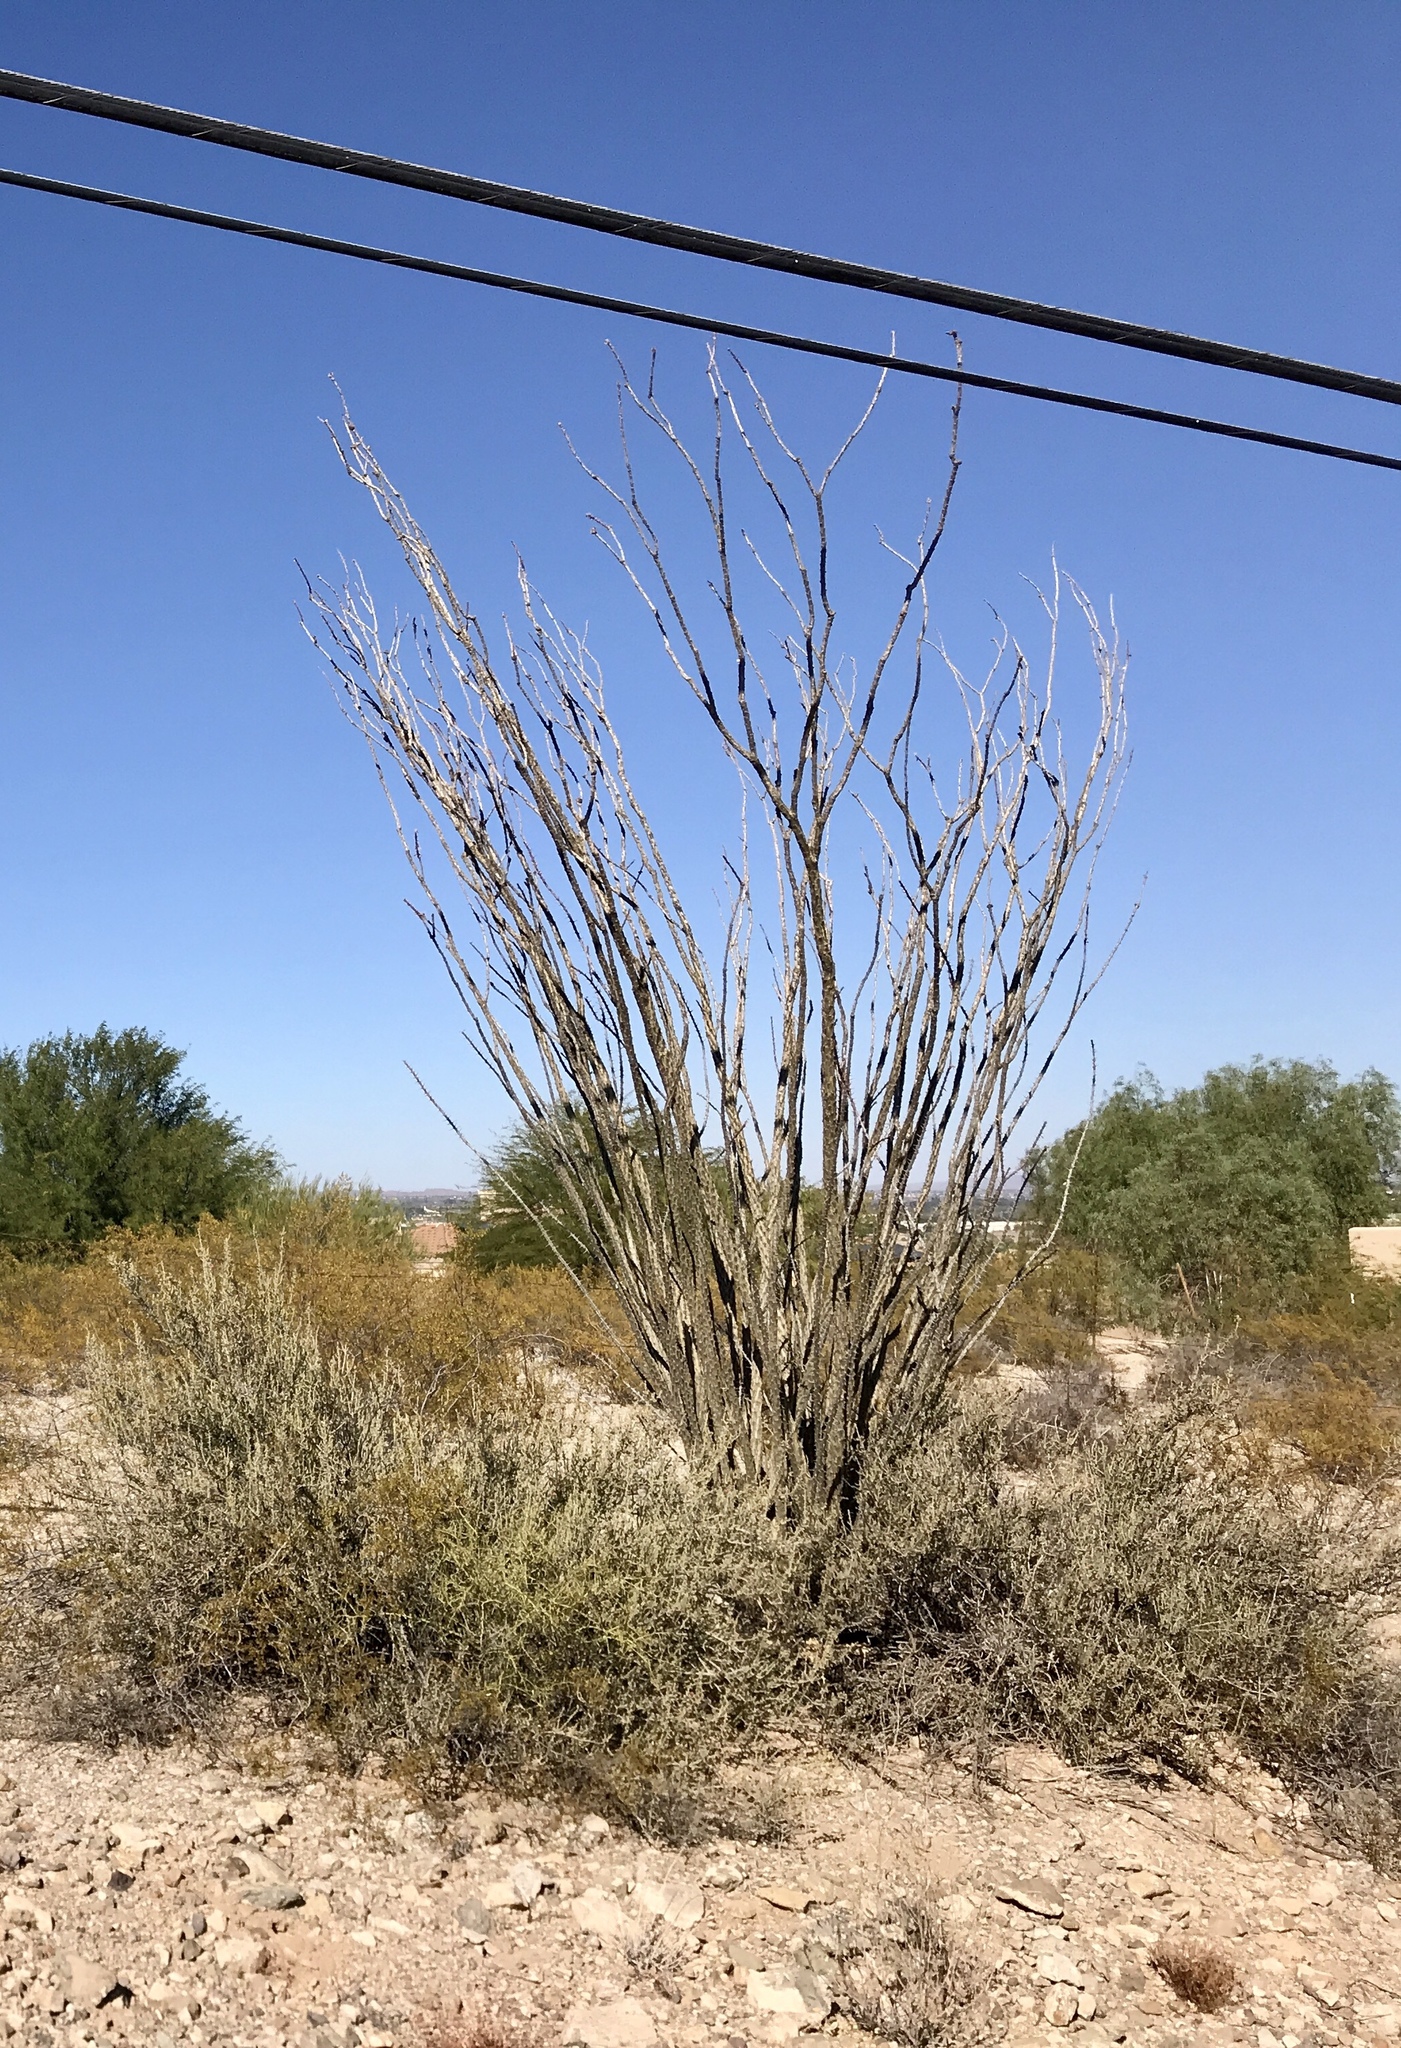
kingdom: Plantae
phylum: Tracheophyta
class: Magnoliopsida
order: Ericales
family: Fouquieriaceae
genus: Fouquieria
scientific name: Fouquieria splendens
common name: Vine-cactus
